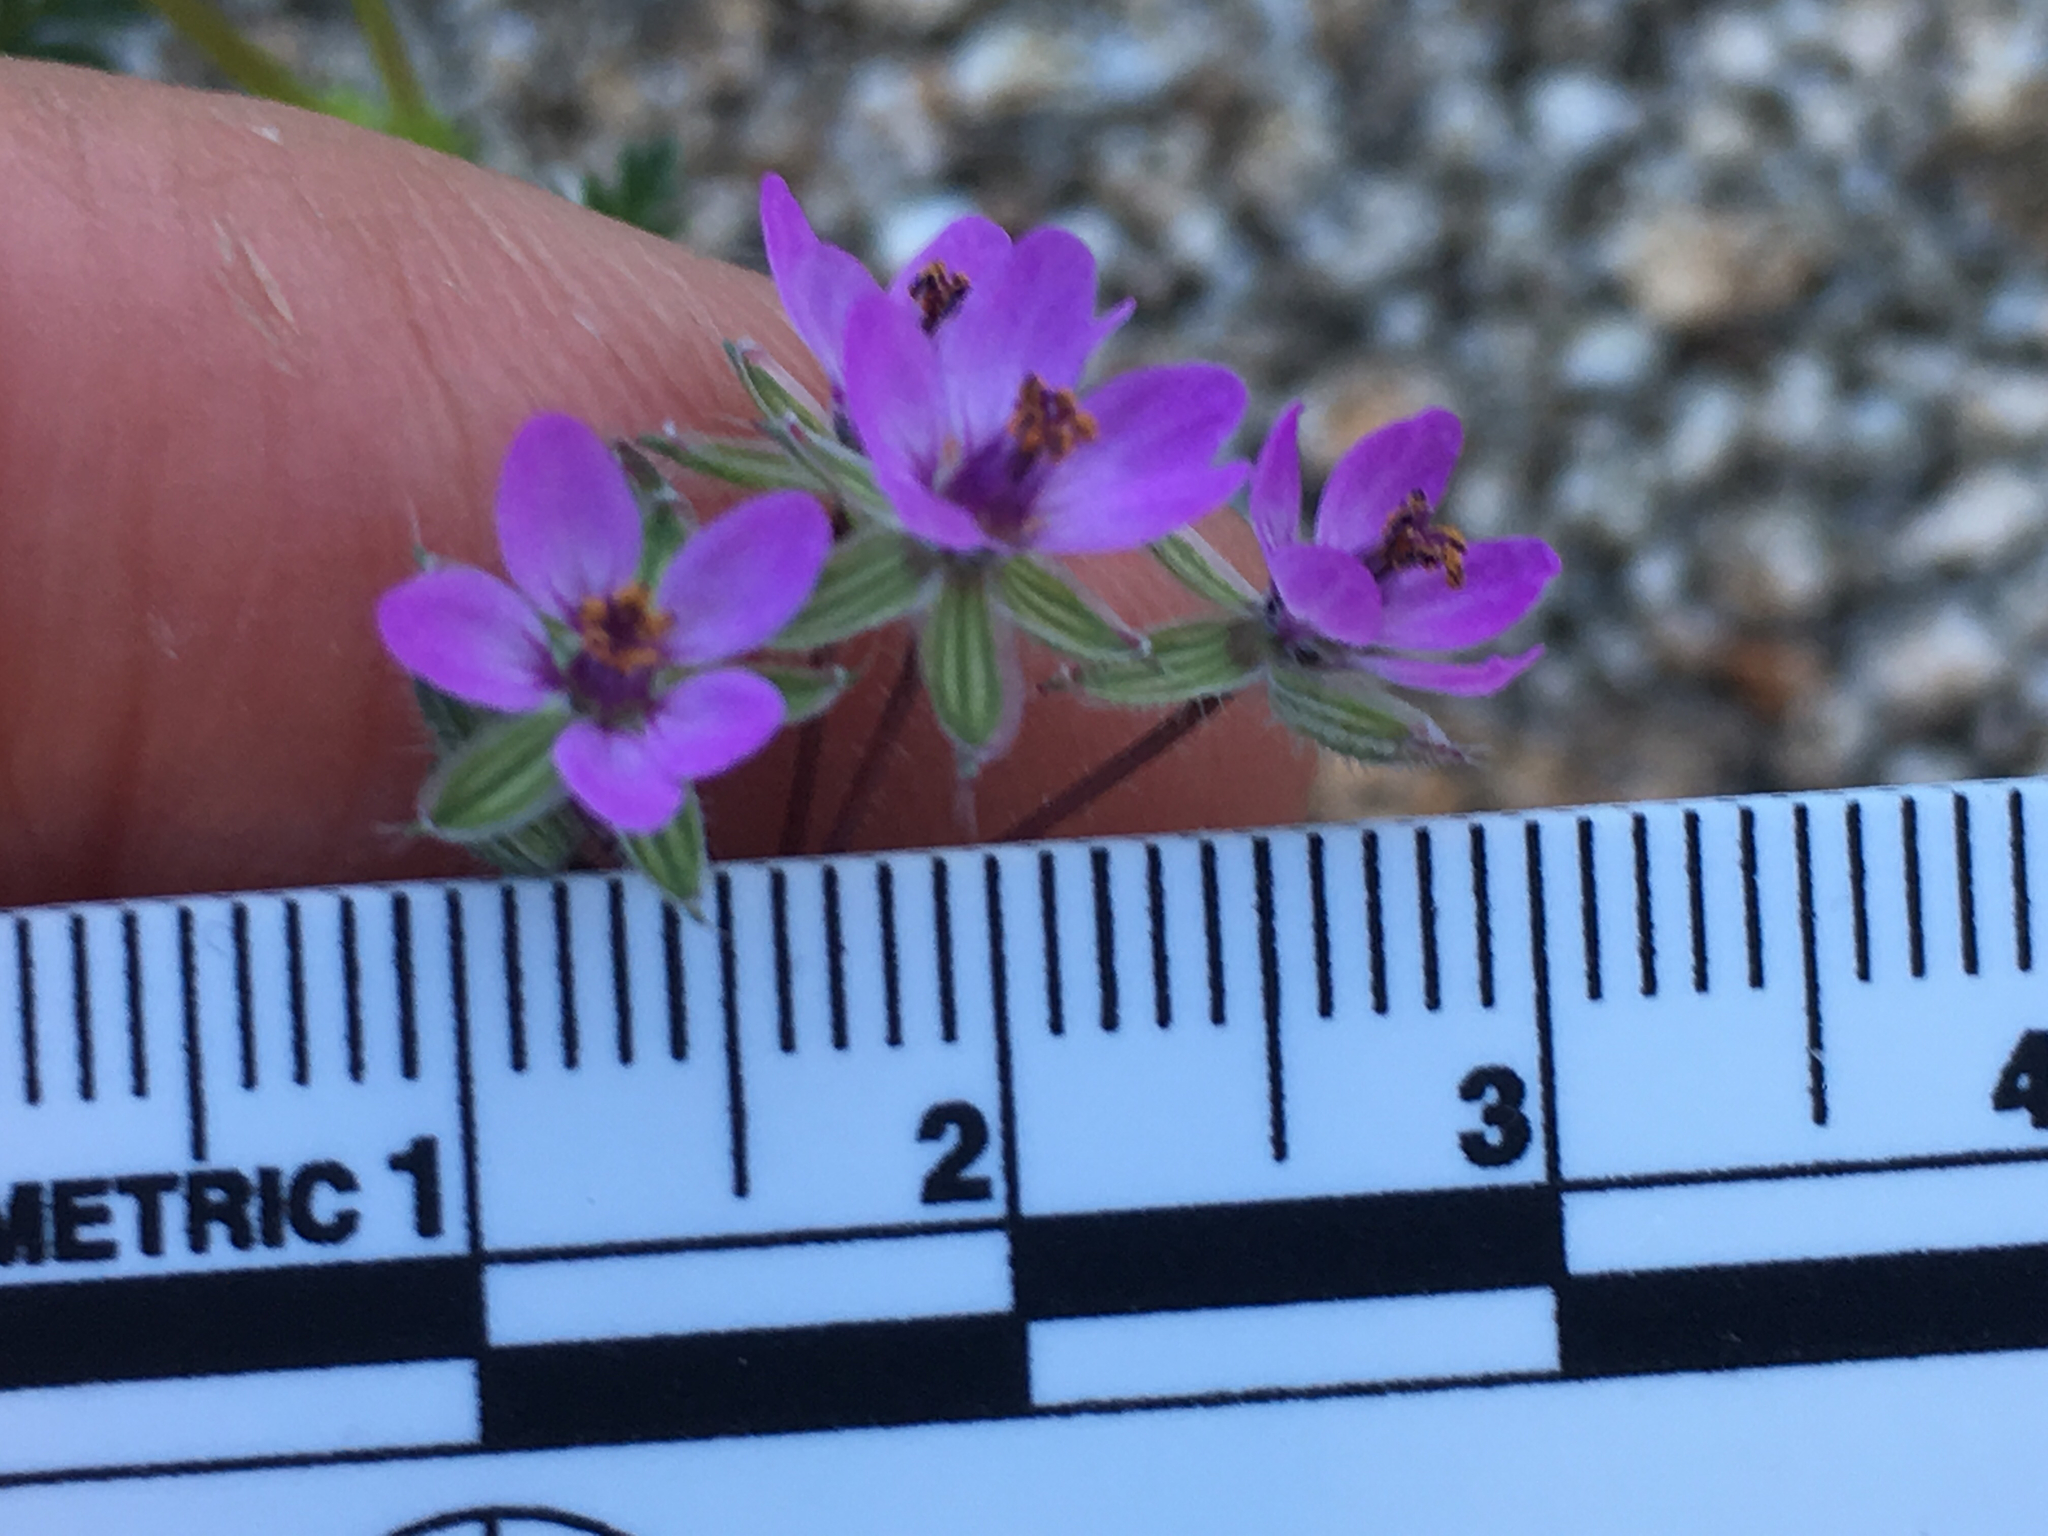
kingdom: Plantae
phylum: Tracheophyta
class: Magnoliopsida
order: Geraniales
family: Geraniaceae
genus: Erodium
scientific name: Erodium cicutarium
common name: Common stork's-bill
